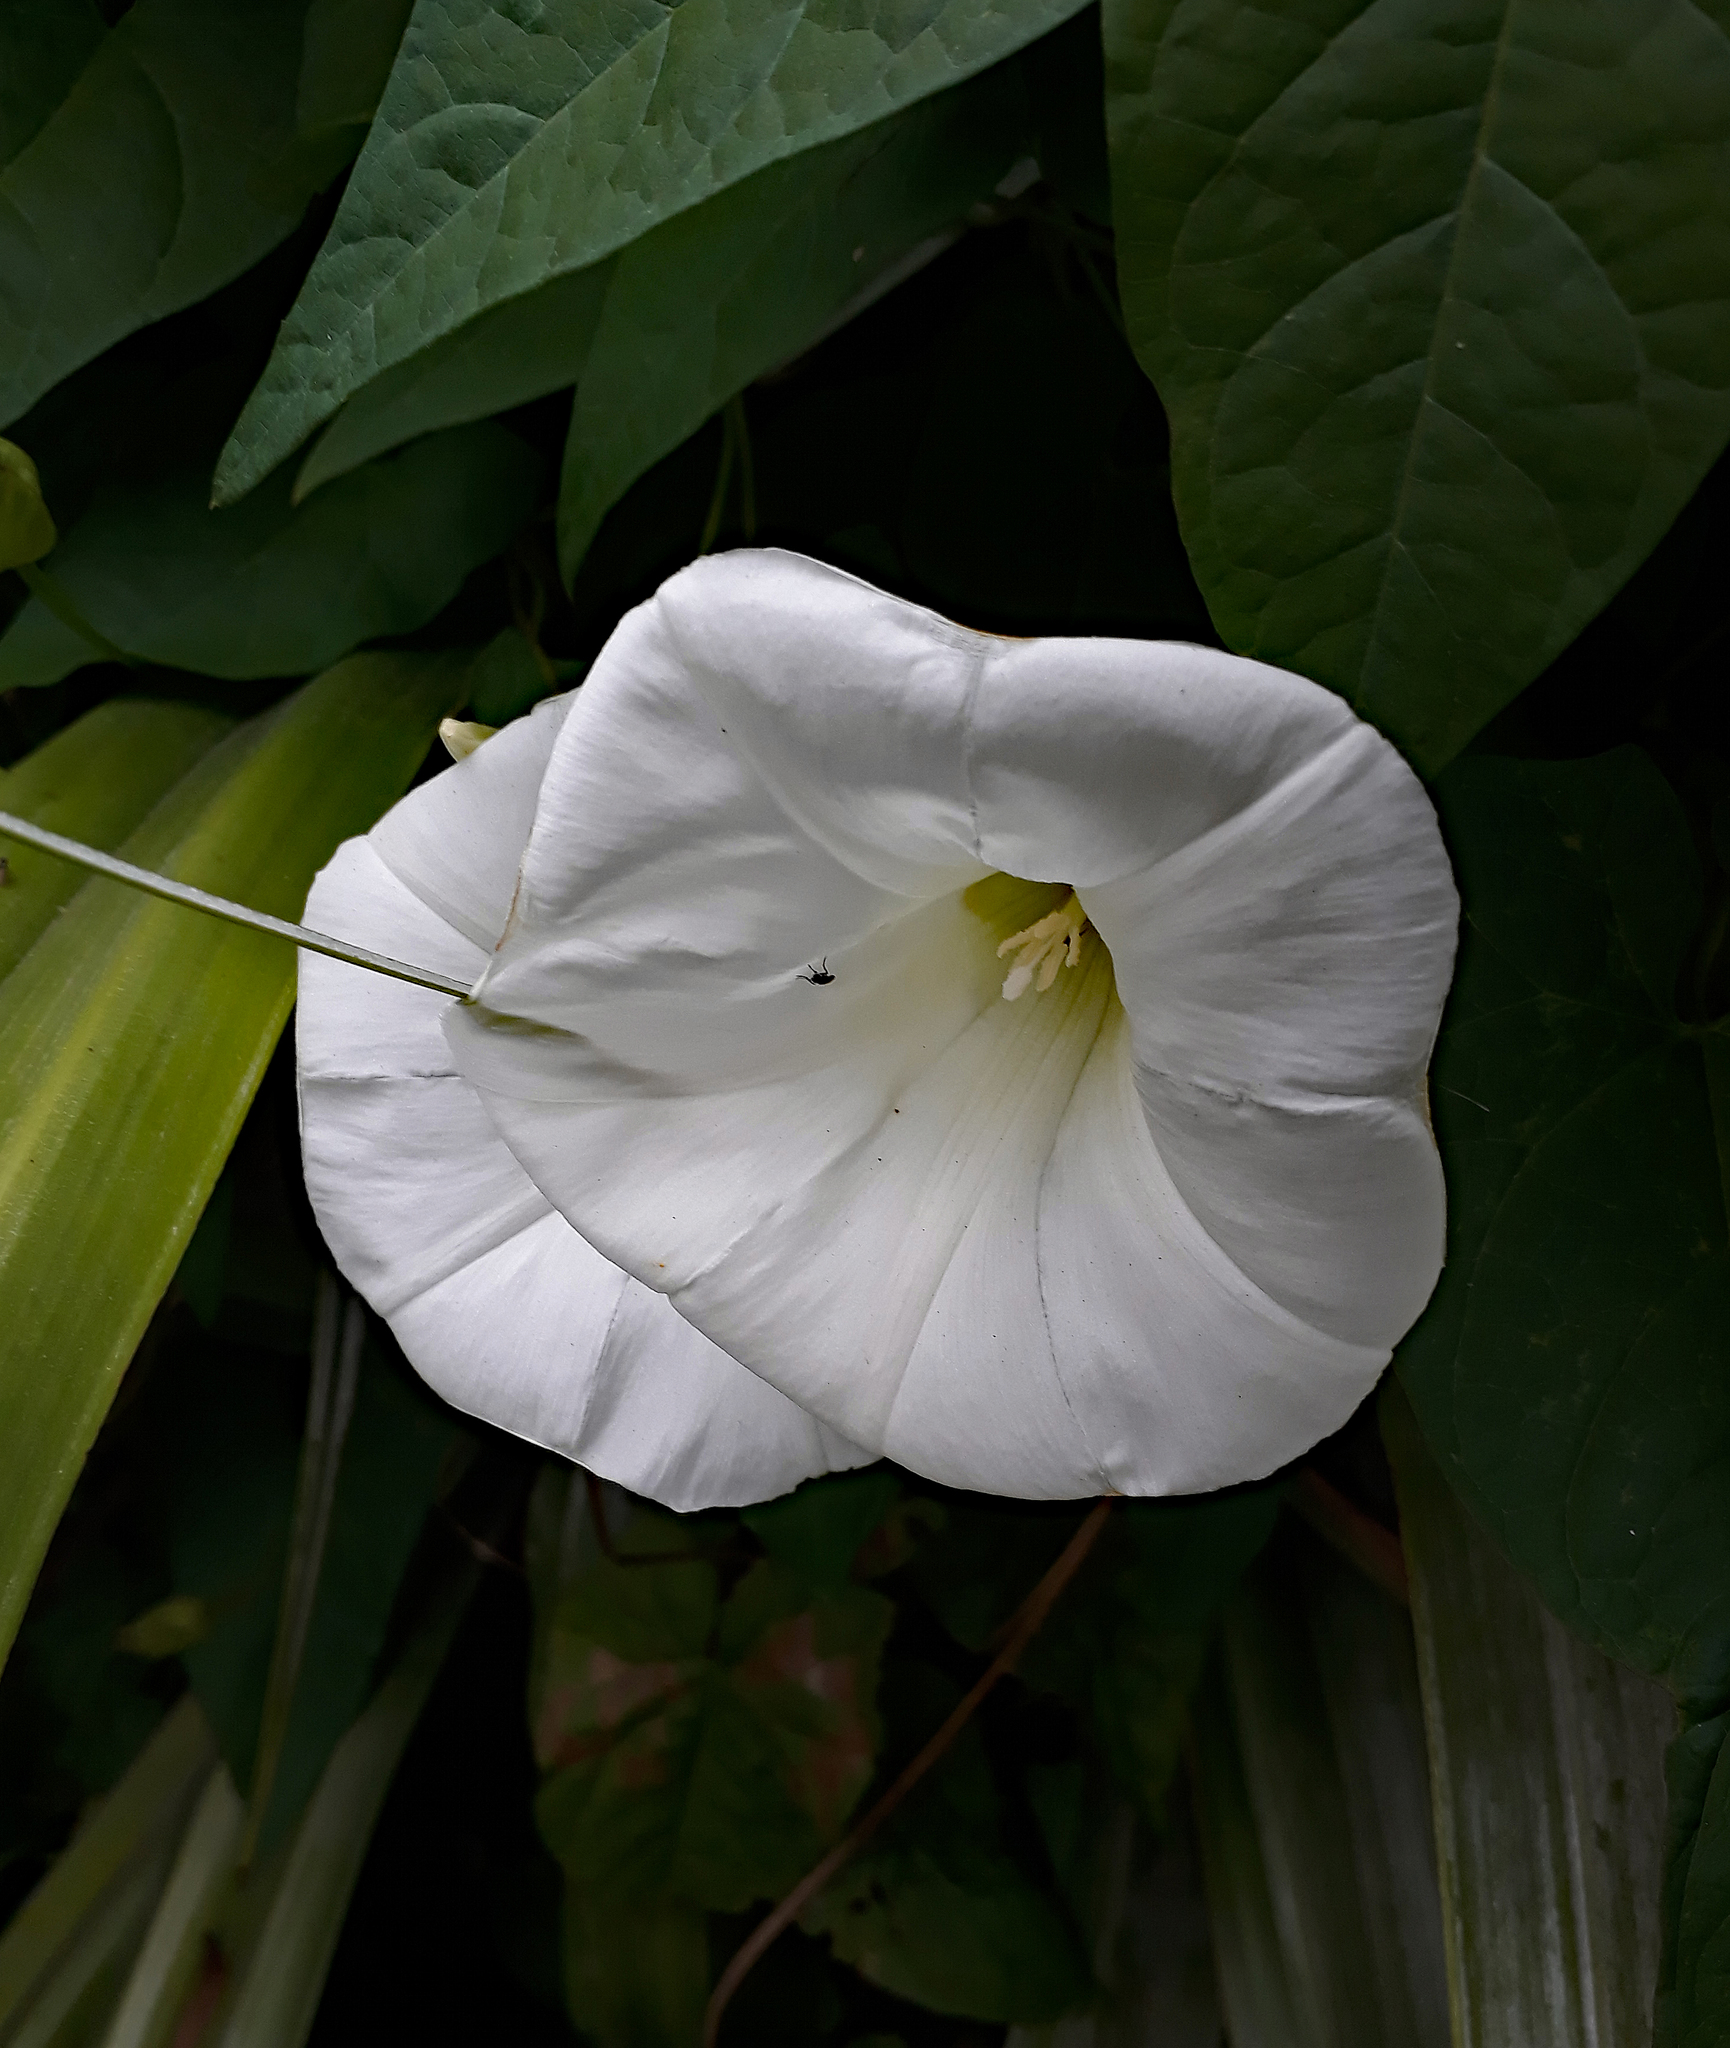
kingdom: Plantae
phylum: Tracheophyta
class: Magnoliopsida
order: Solanales
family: Convolvulaceae
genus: Calystegia
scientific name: Calystegia silvatica
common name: Large bindweed
